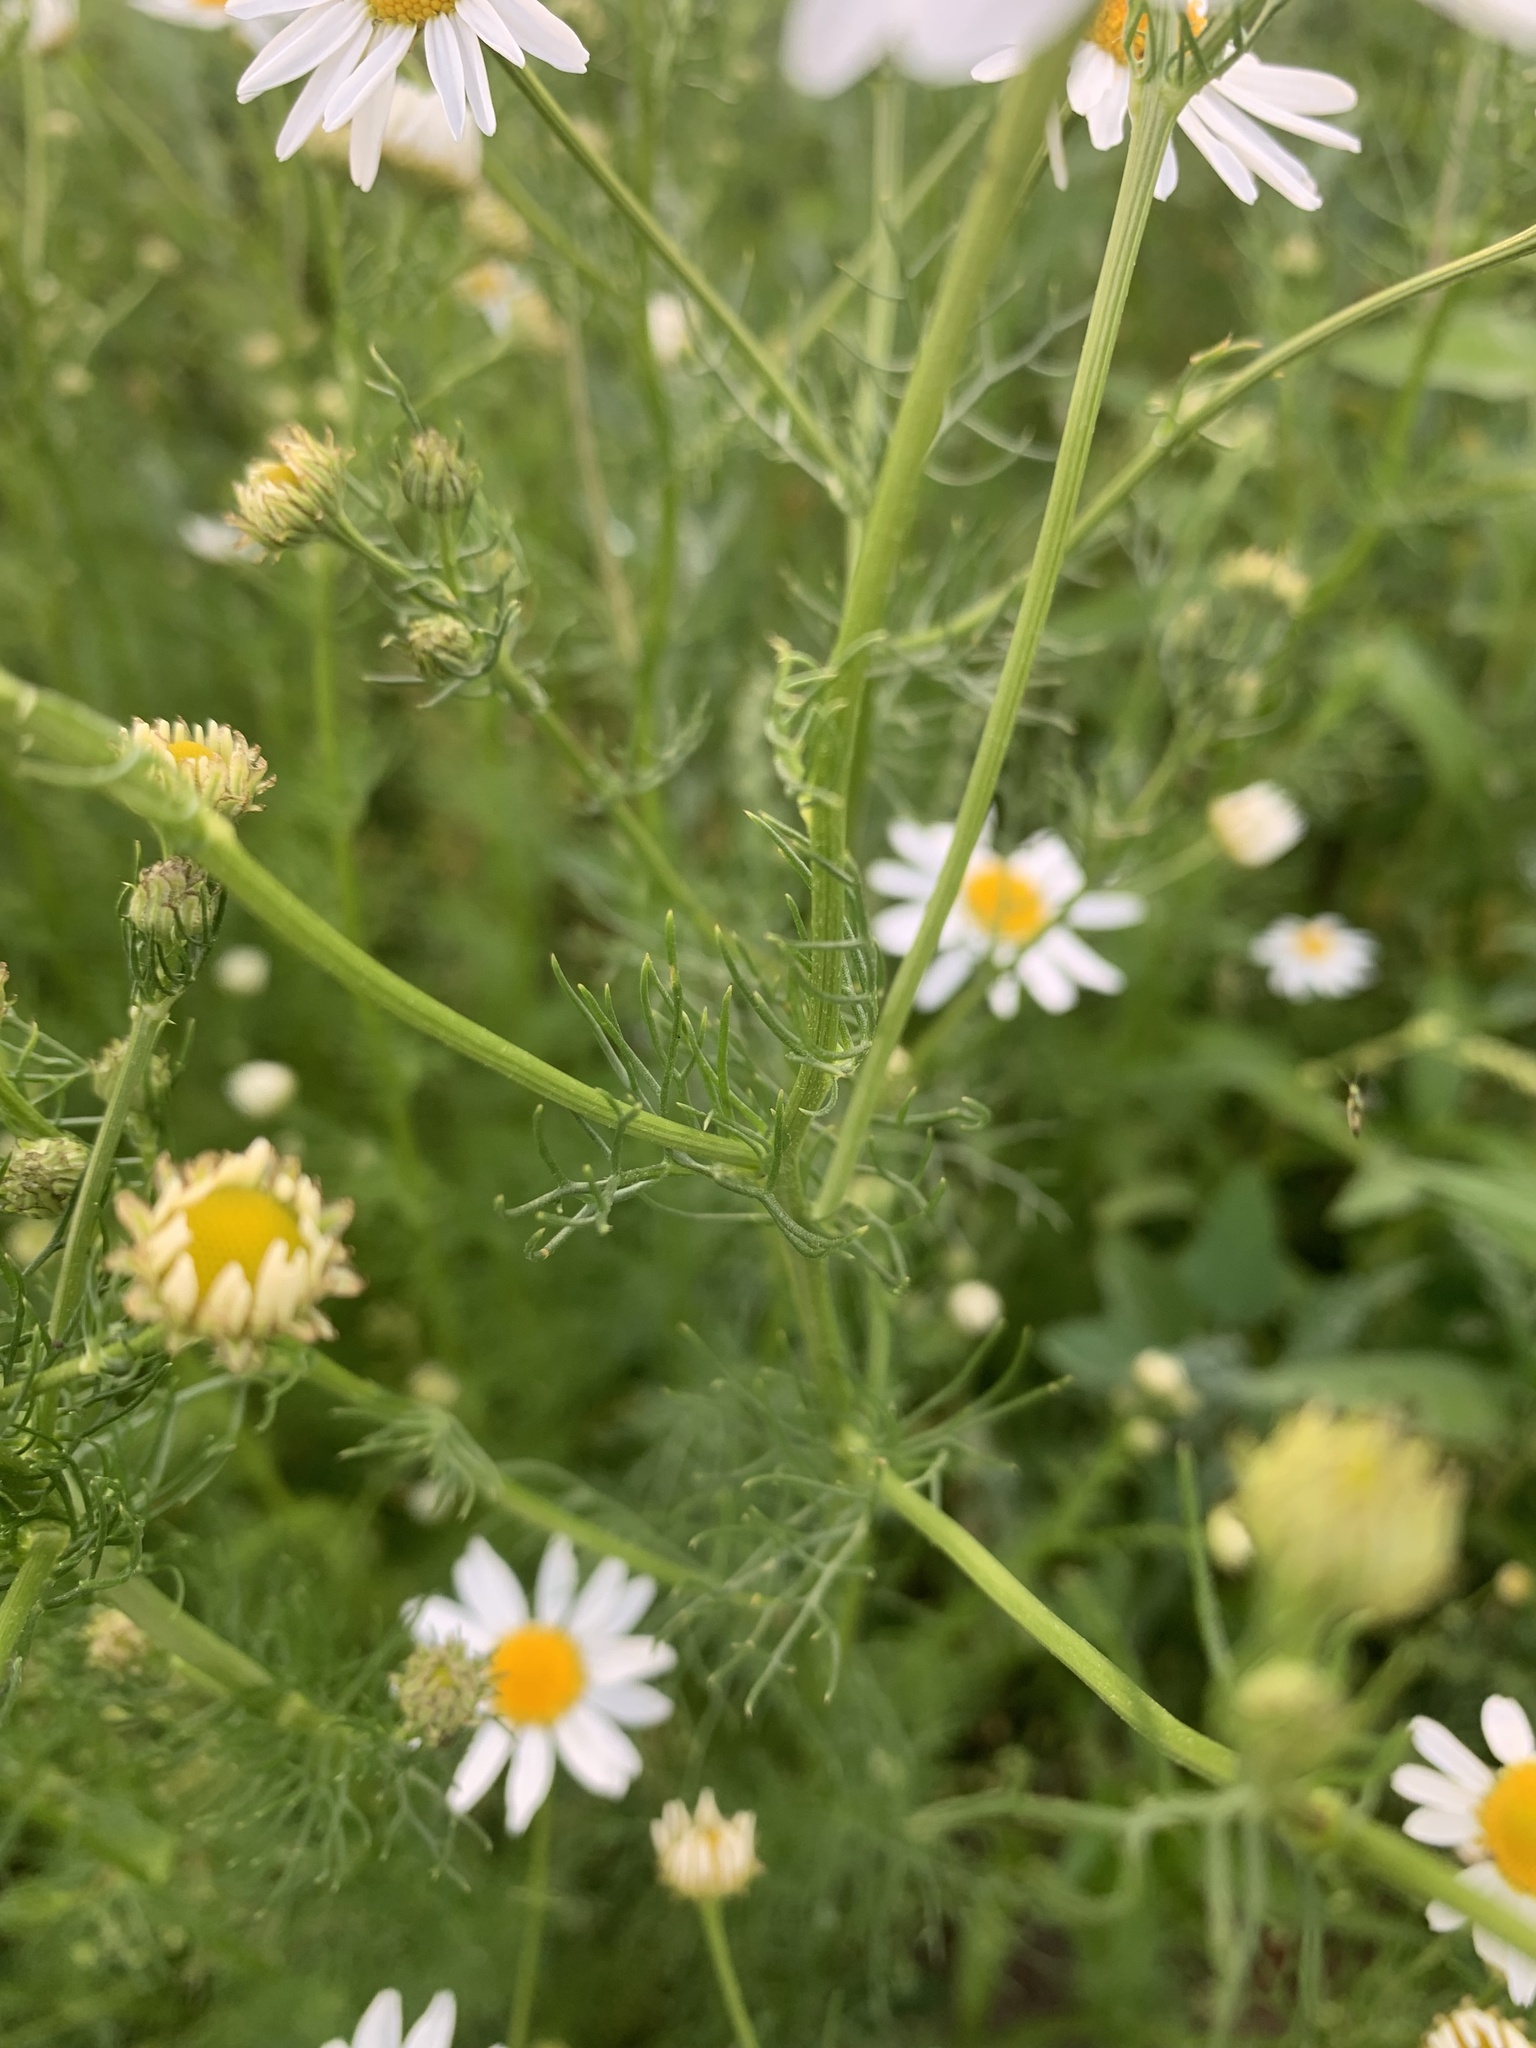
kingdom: Plantae
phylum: Tracheophyta
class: Magnoliopsida
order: Asterales
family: Asteraceae
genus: Tripleurospermum
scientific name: Tripleurospermum inodorum
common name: Scentless mayweed
